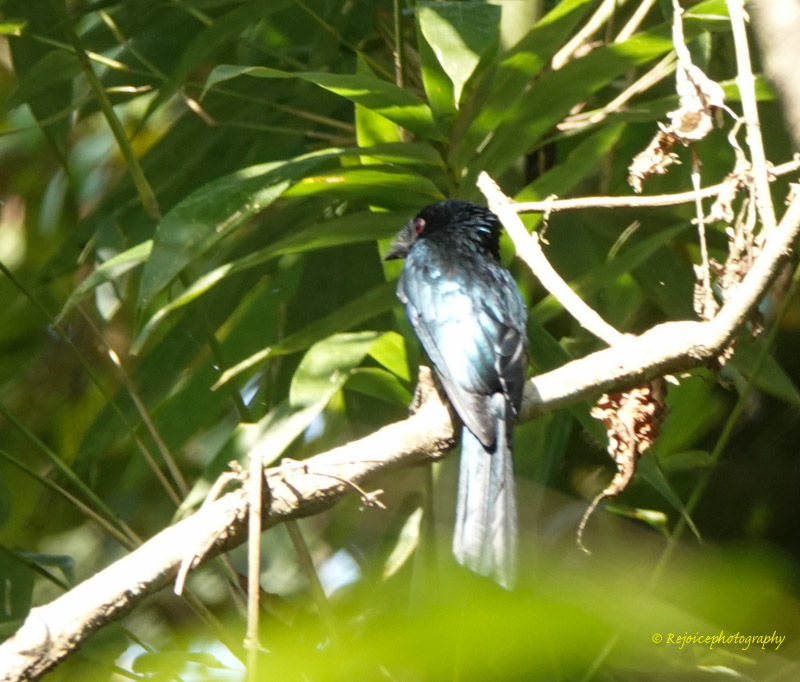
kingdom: Animalia
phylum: Chordata
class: Aves
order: Passeriformes
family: Dicruridae
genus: Dicrurus
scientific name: Dicrurus remifer
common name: Lesser racket-tailed drongo
